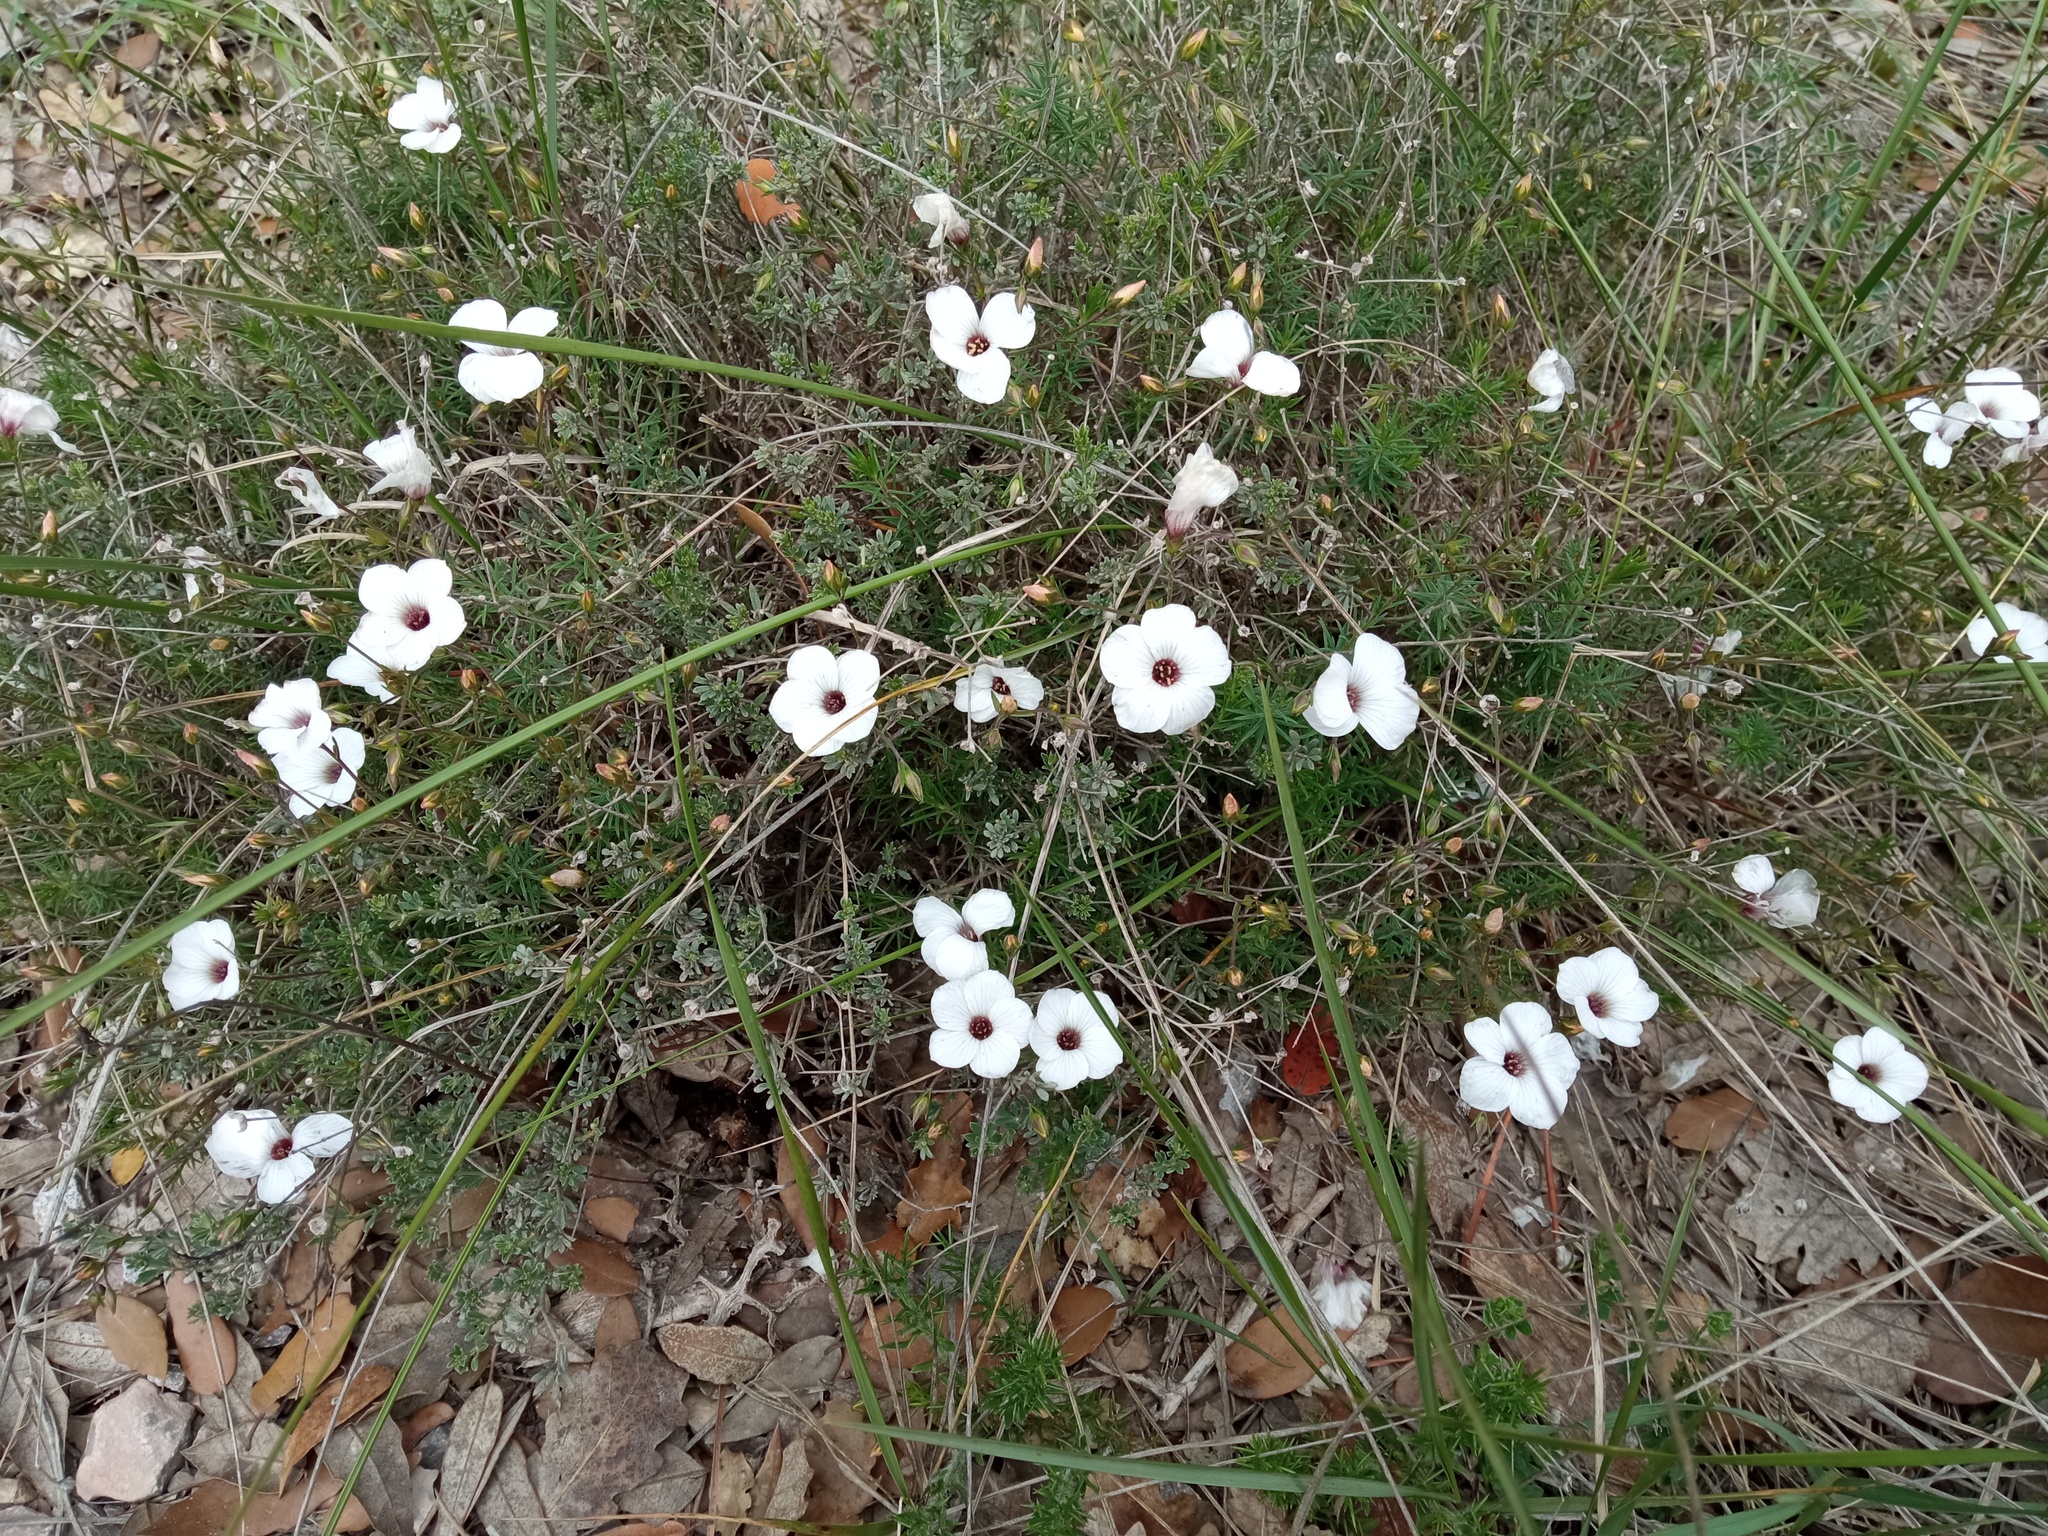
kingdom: Plantae
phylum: Tracheophyta
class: Magnoliopsida
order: Malpighiales
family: Linaceae
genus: Linum
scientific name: Linum milletii
